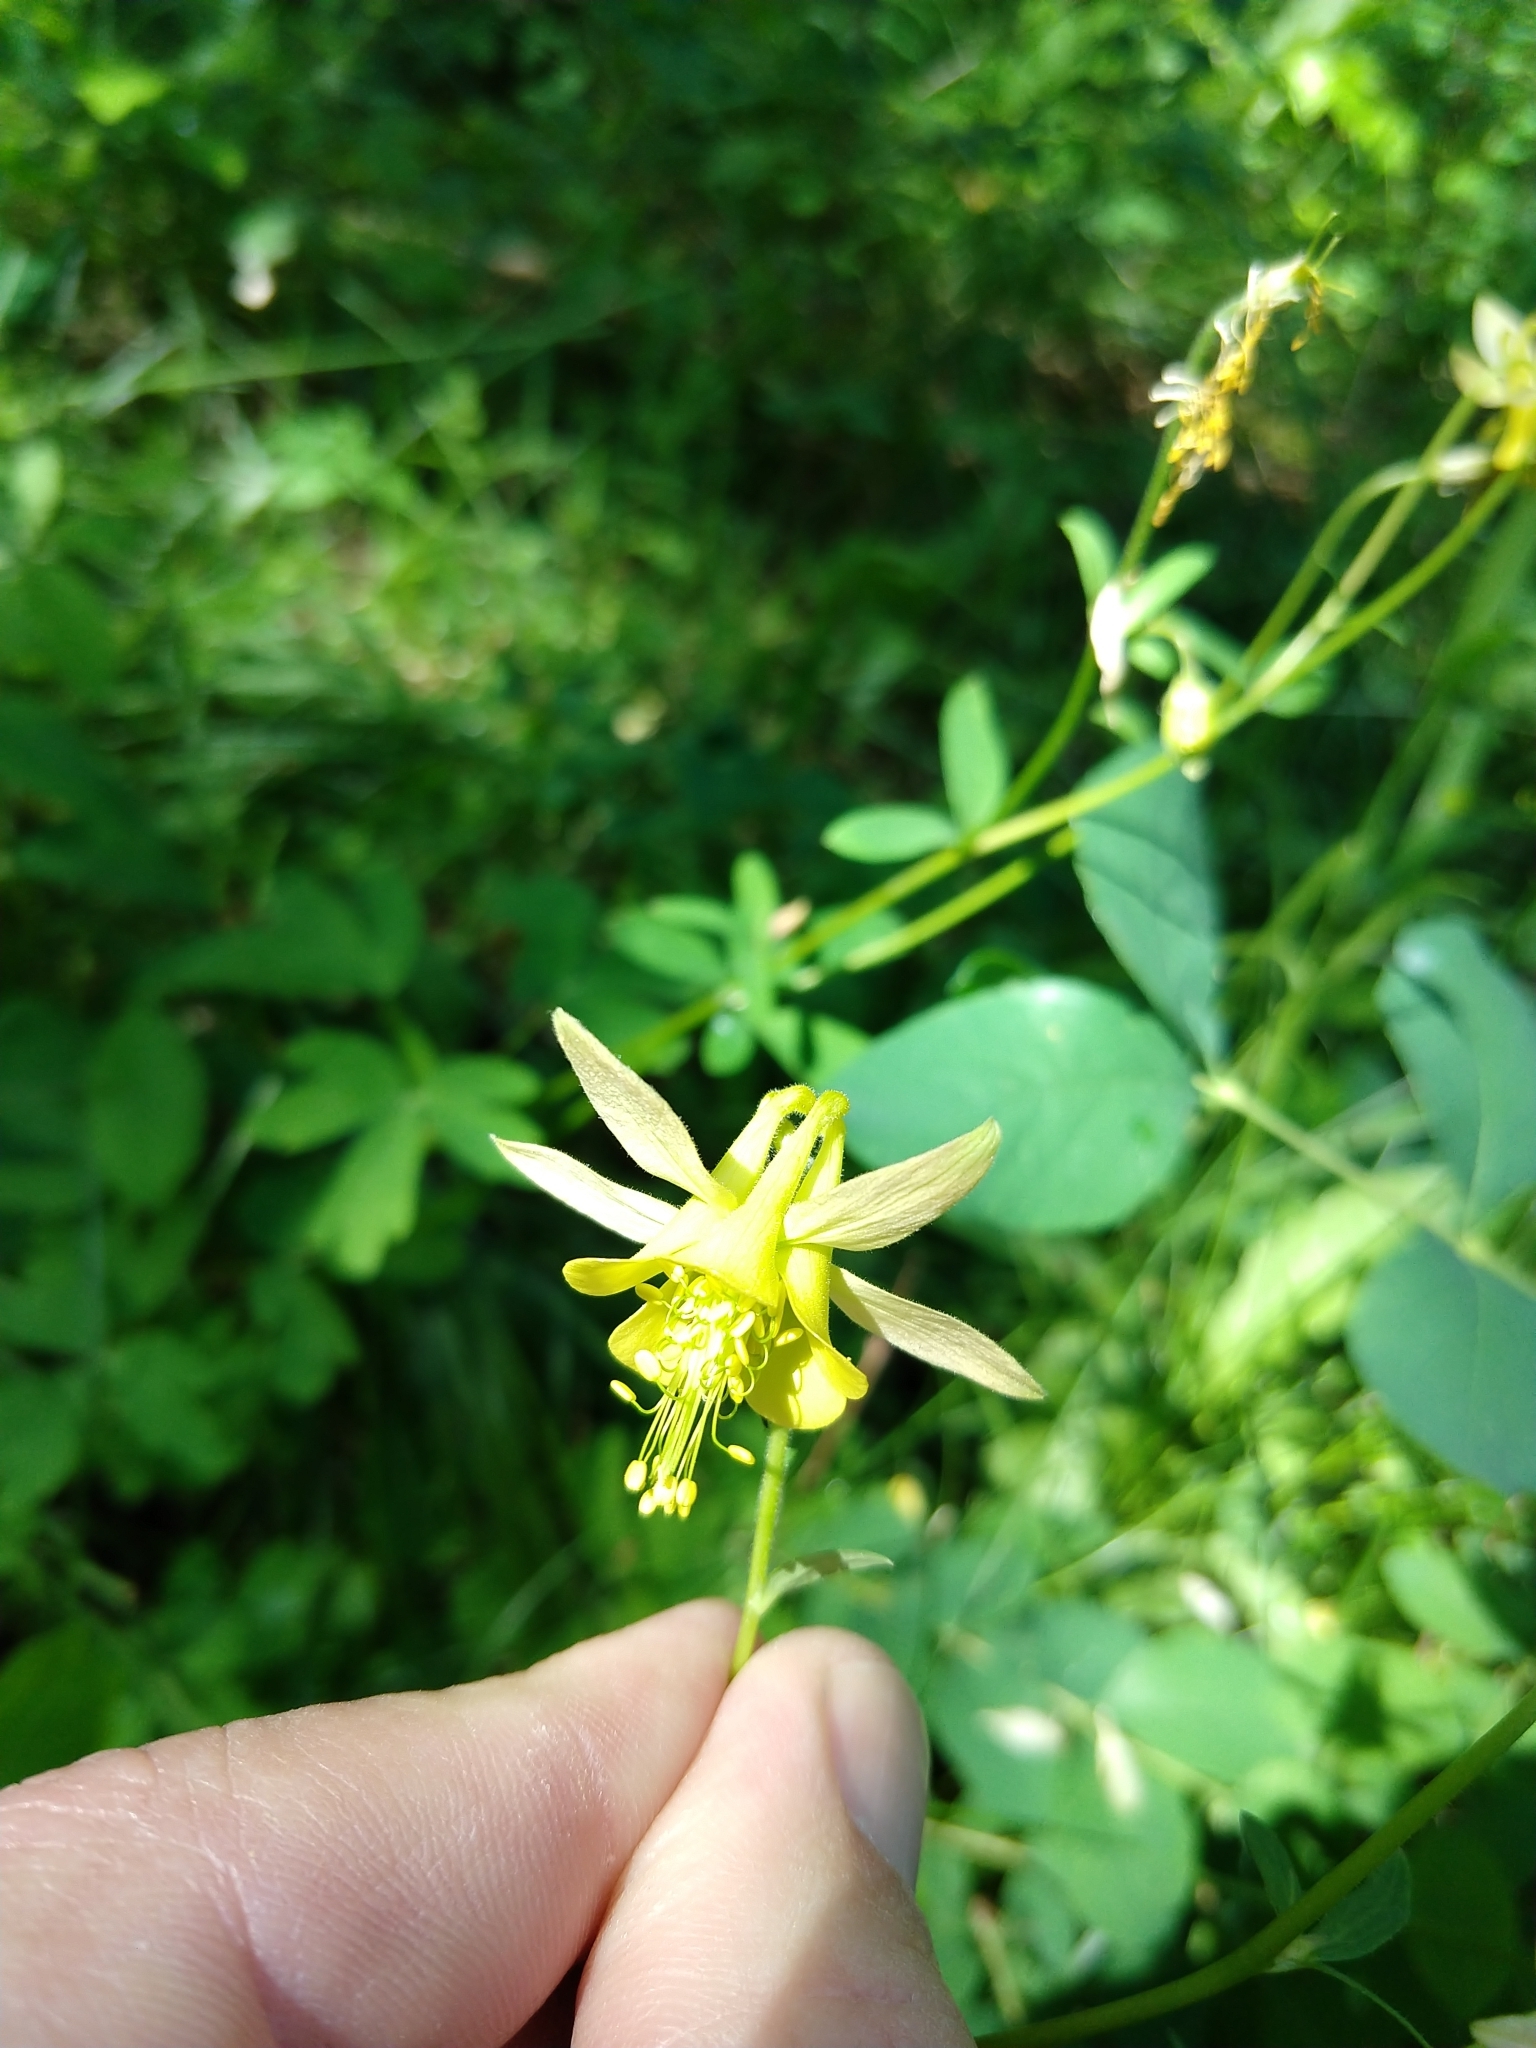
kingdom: Plantae
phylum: Tracheophyta
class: Magnoliopsida
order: Ranunculales
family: Ranunculaceae
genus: Aquilegia
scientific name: Aquilegia flavescens
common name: Yellow columbine
